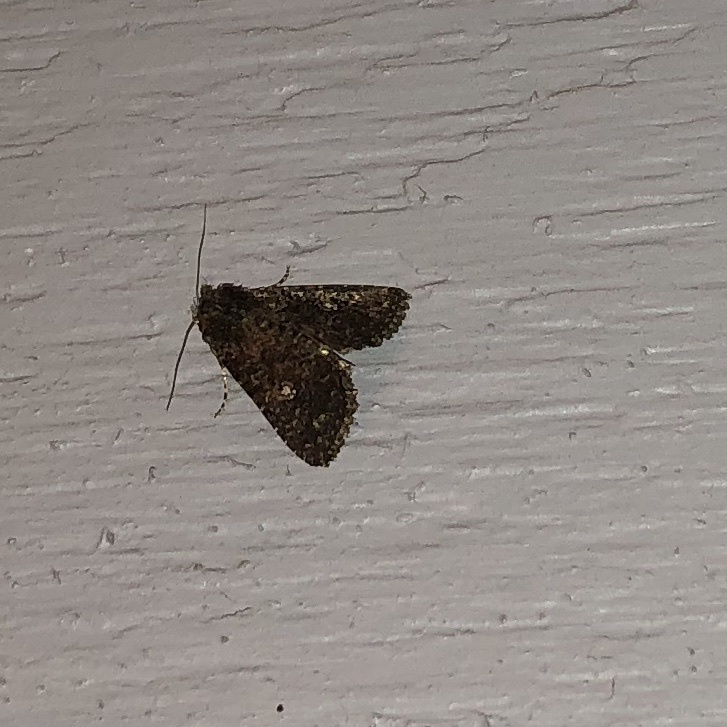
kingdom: Animalia
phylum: Arthropoda
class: Insecta
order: Lepidoptera
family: Noctuidae
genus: Condica
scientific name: Condica vecors
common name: Dusky groundling
